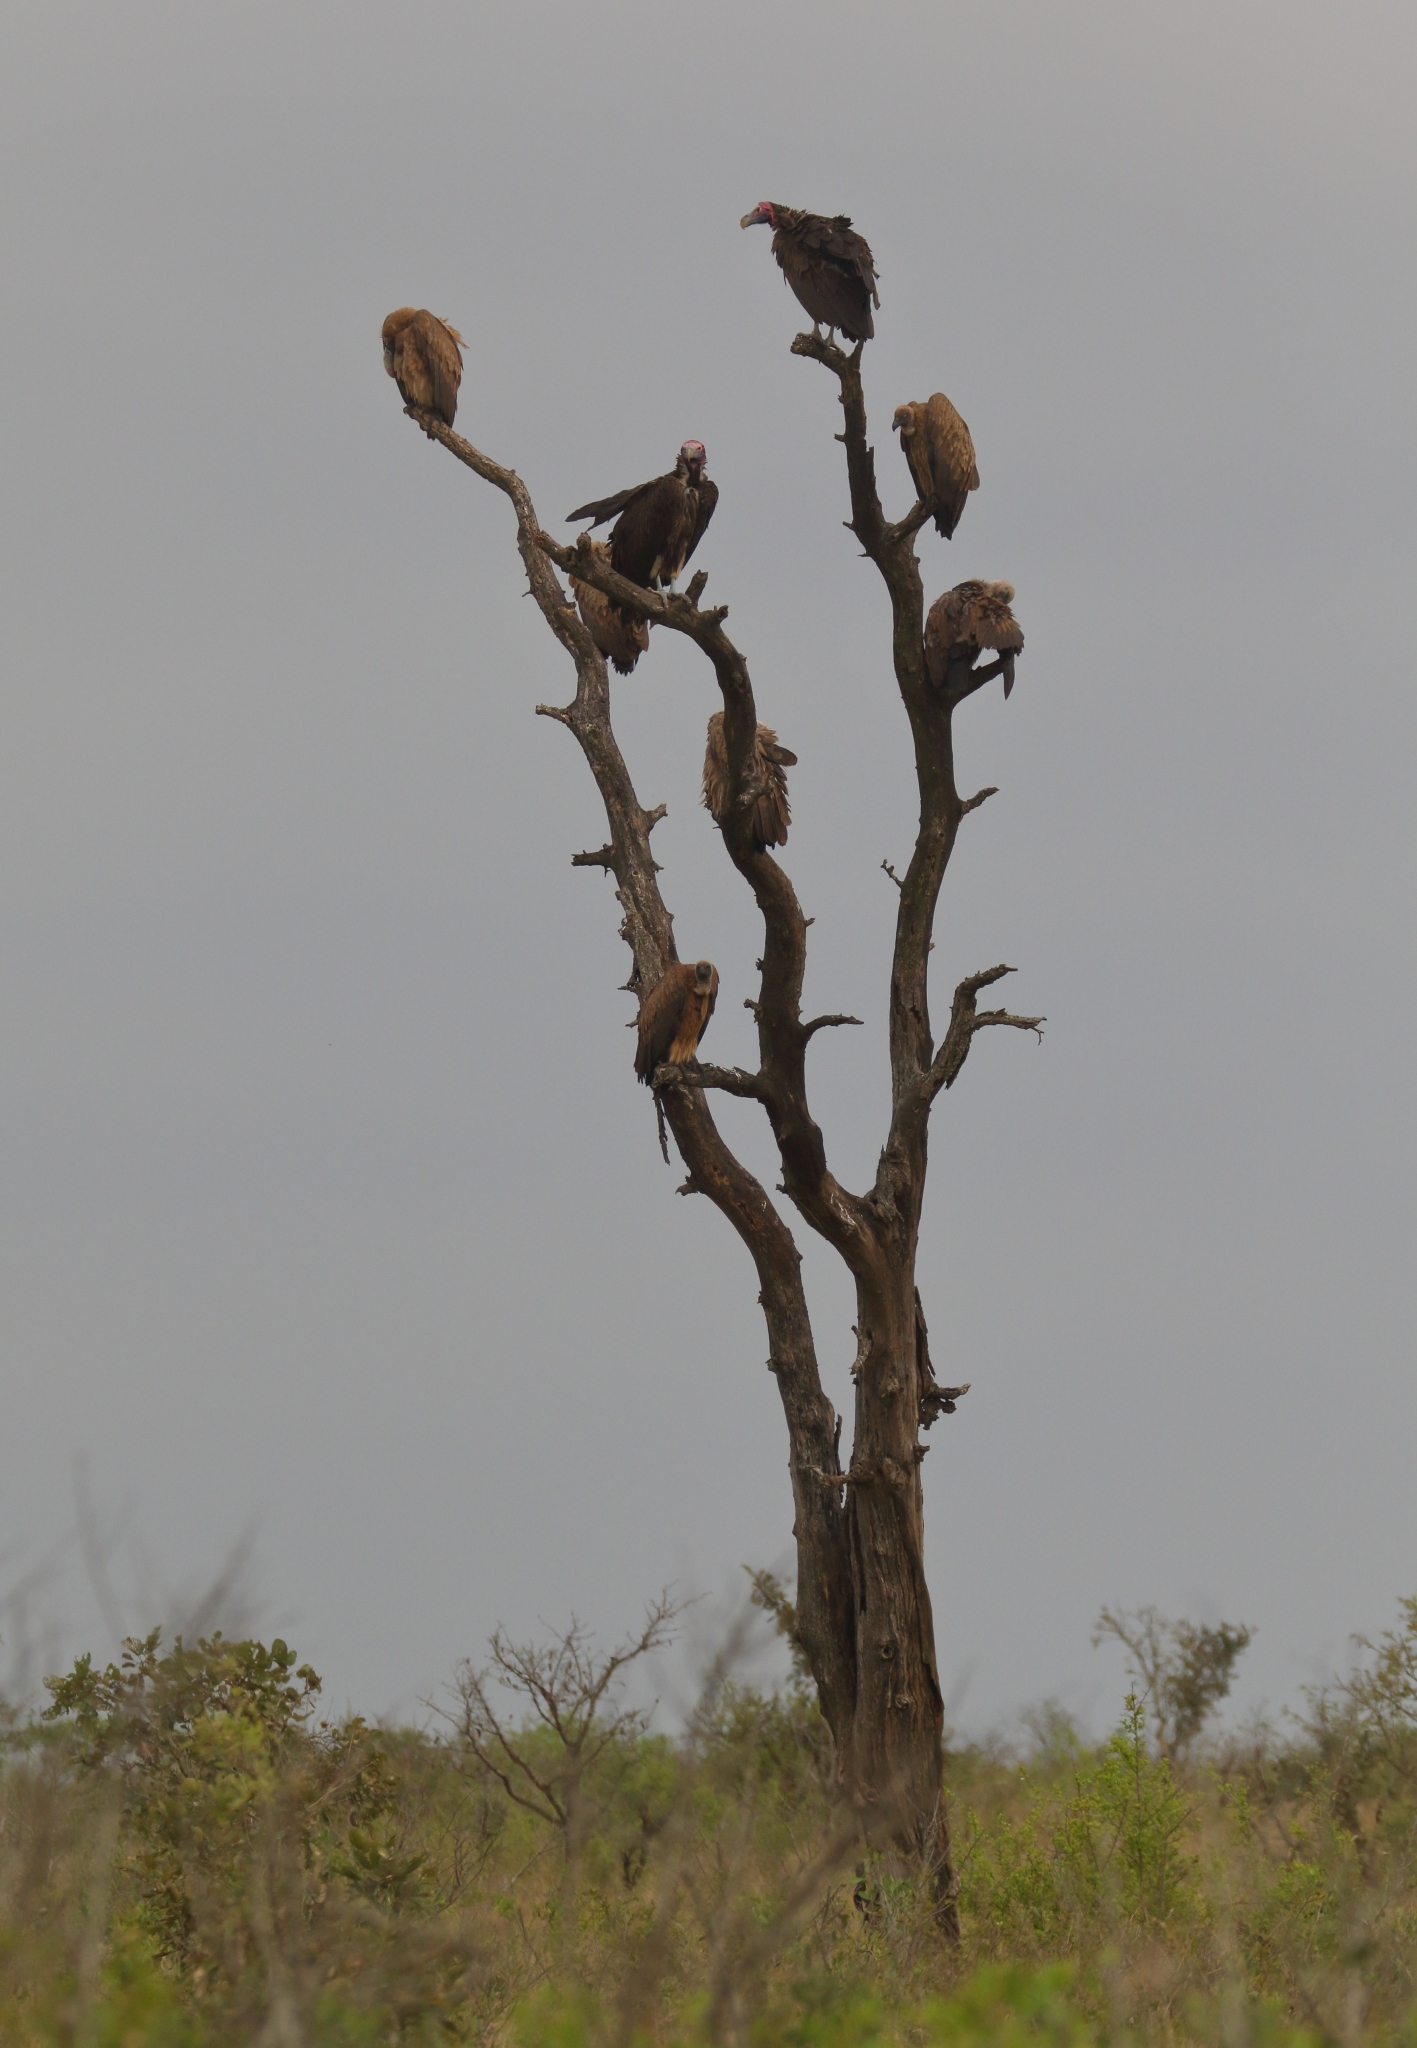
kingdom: Animalia
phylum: Chordata
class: Aves
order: Accipitriformes
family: Accipitridae
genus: Torgos
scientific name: Torgos tracheliotos
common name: Lappet-faced vulture
